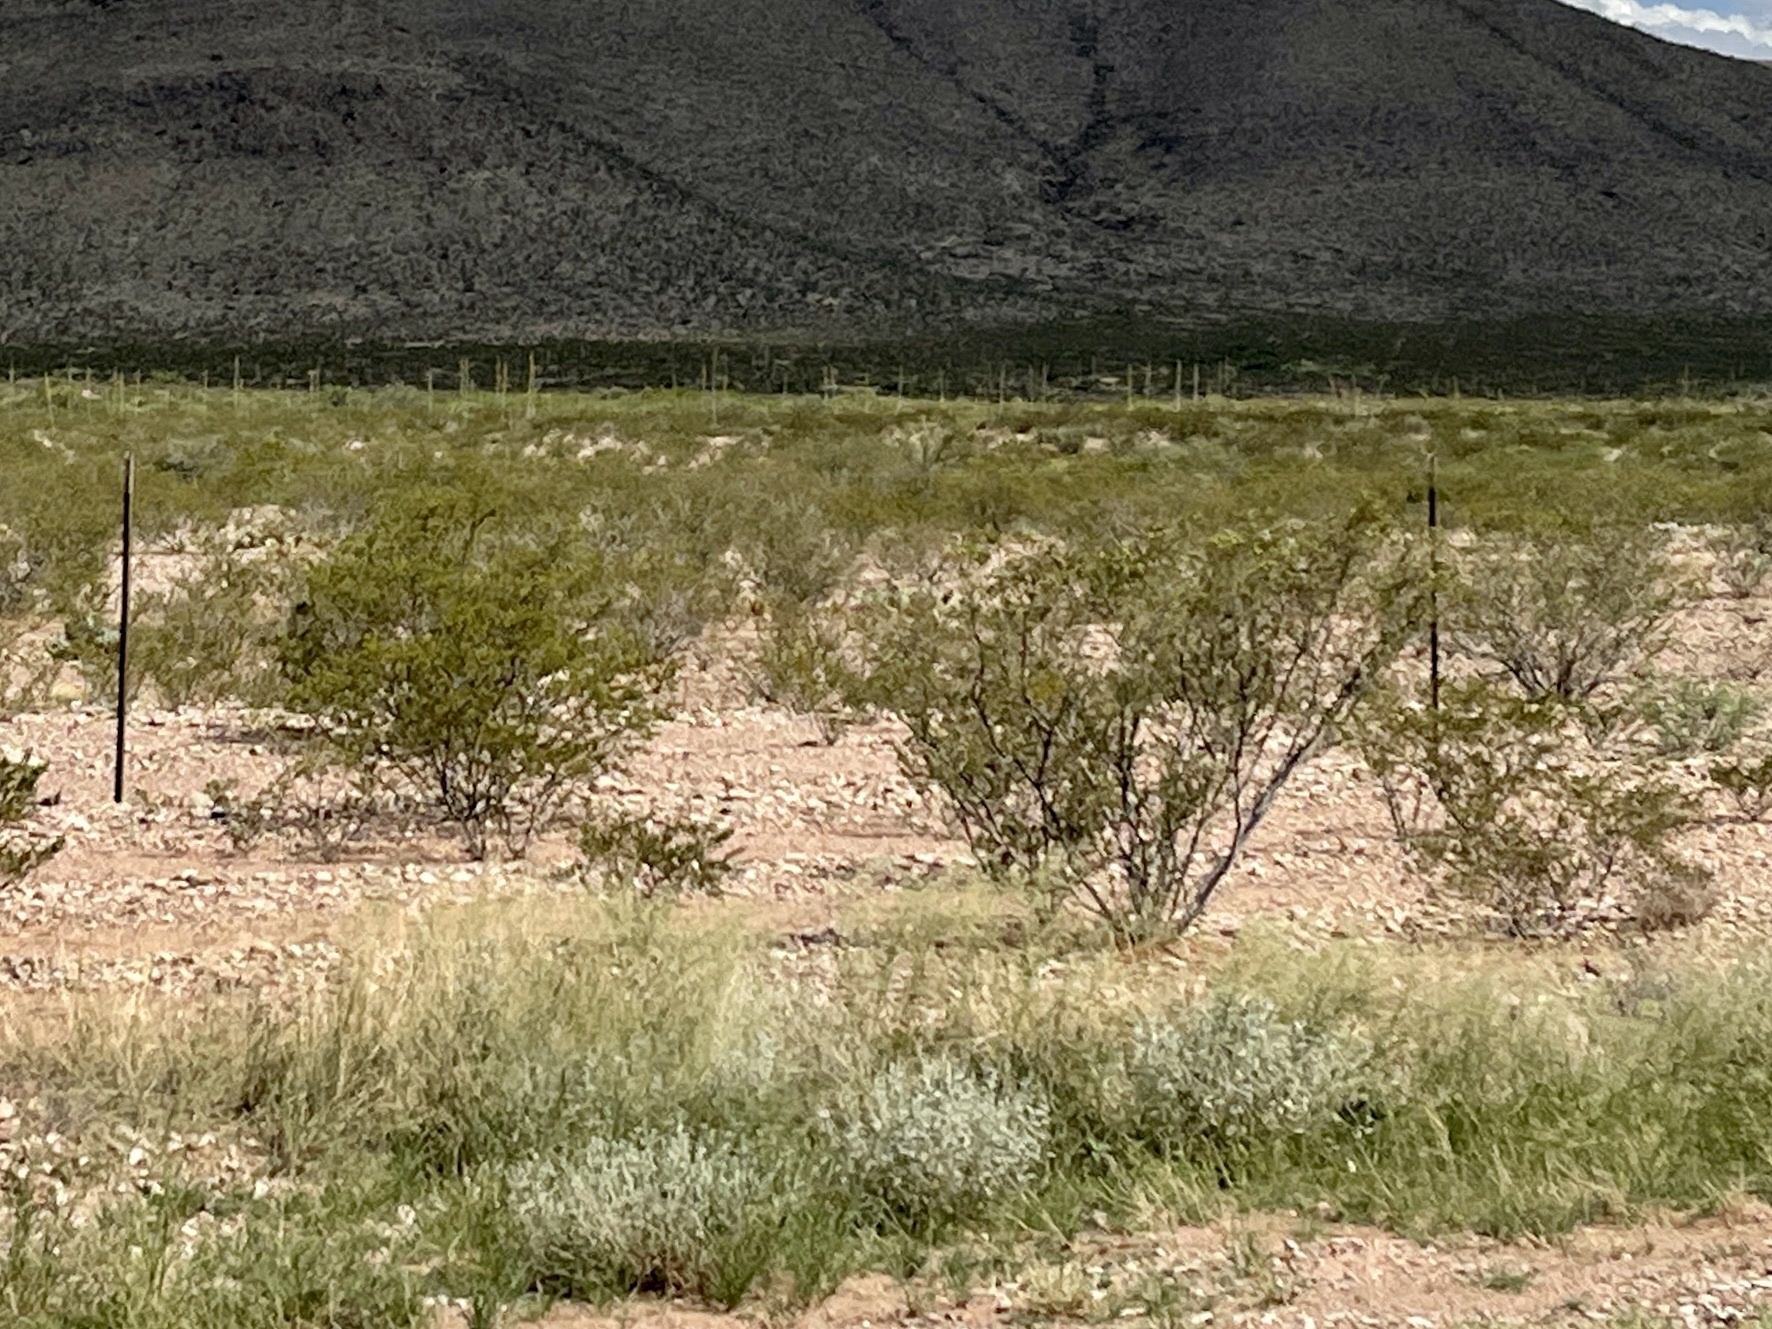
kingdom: Plantae
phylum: Tracheophyta
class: Magnoliopsida
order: Zygophyllales
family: Zygophyllaceae
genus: Larrea
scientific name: Larrea tridentata
